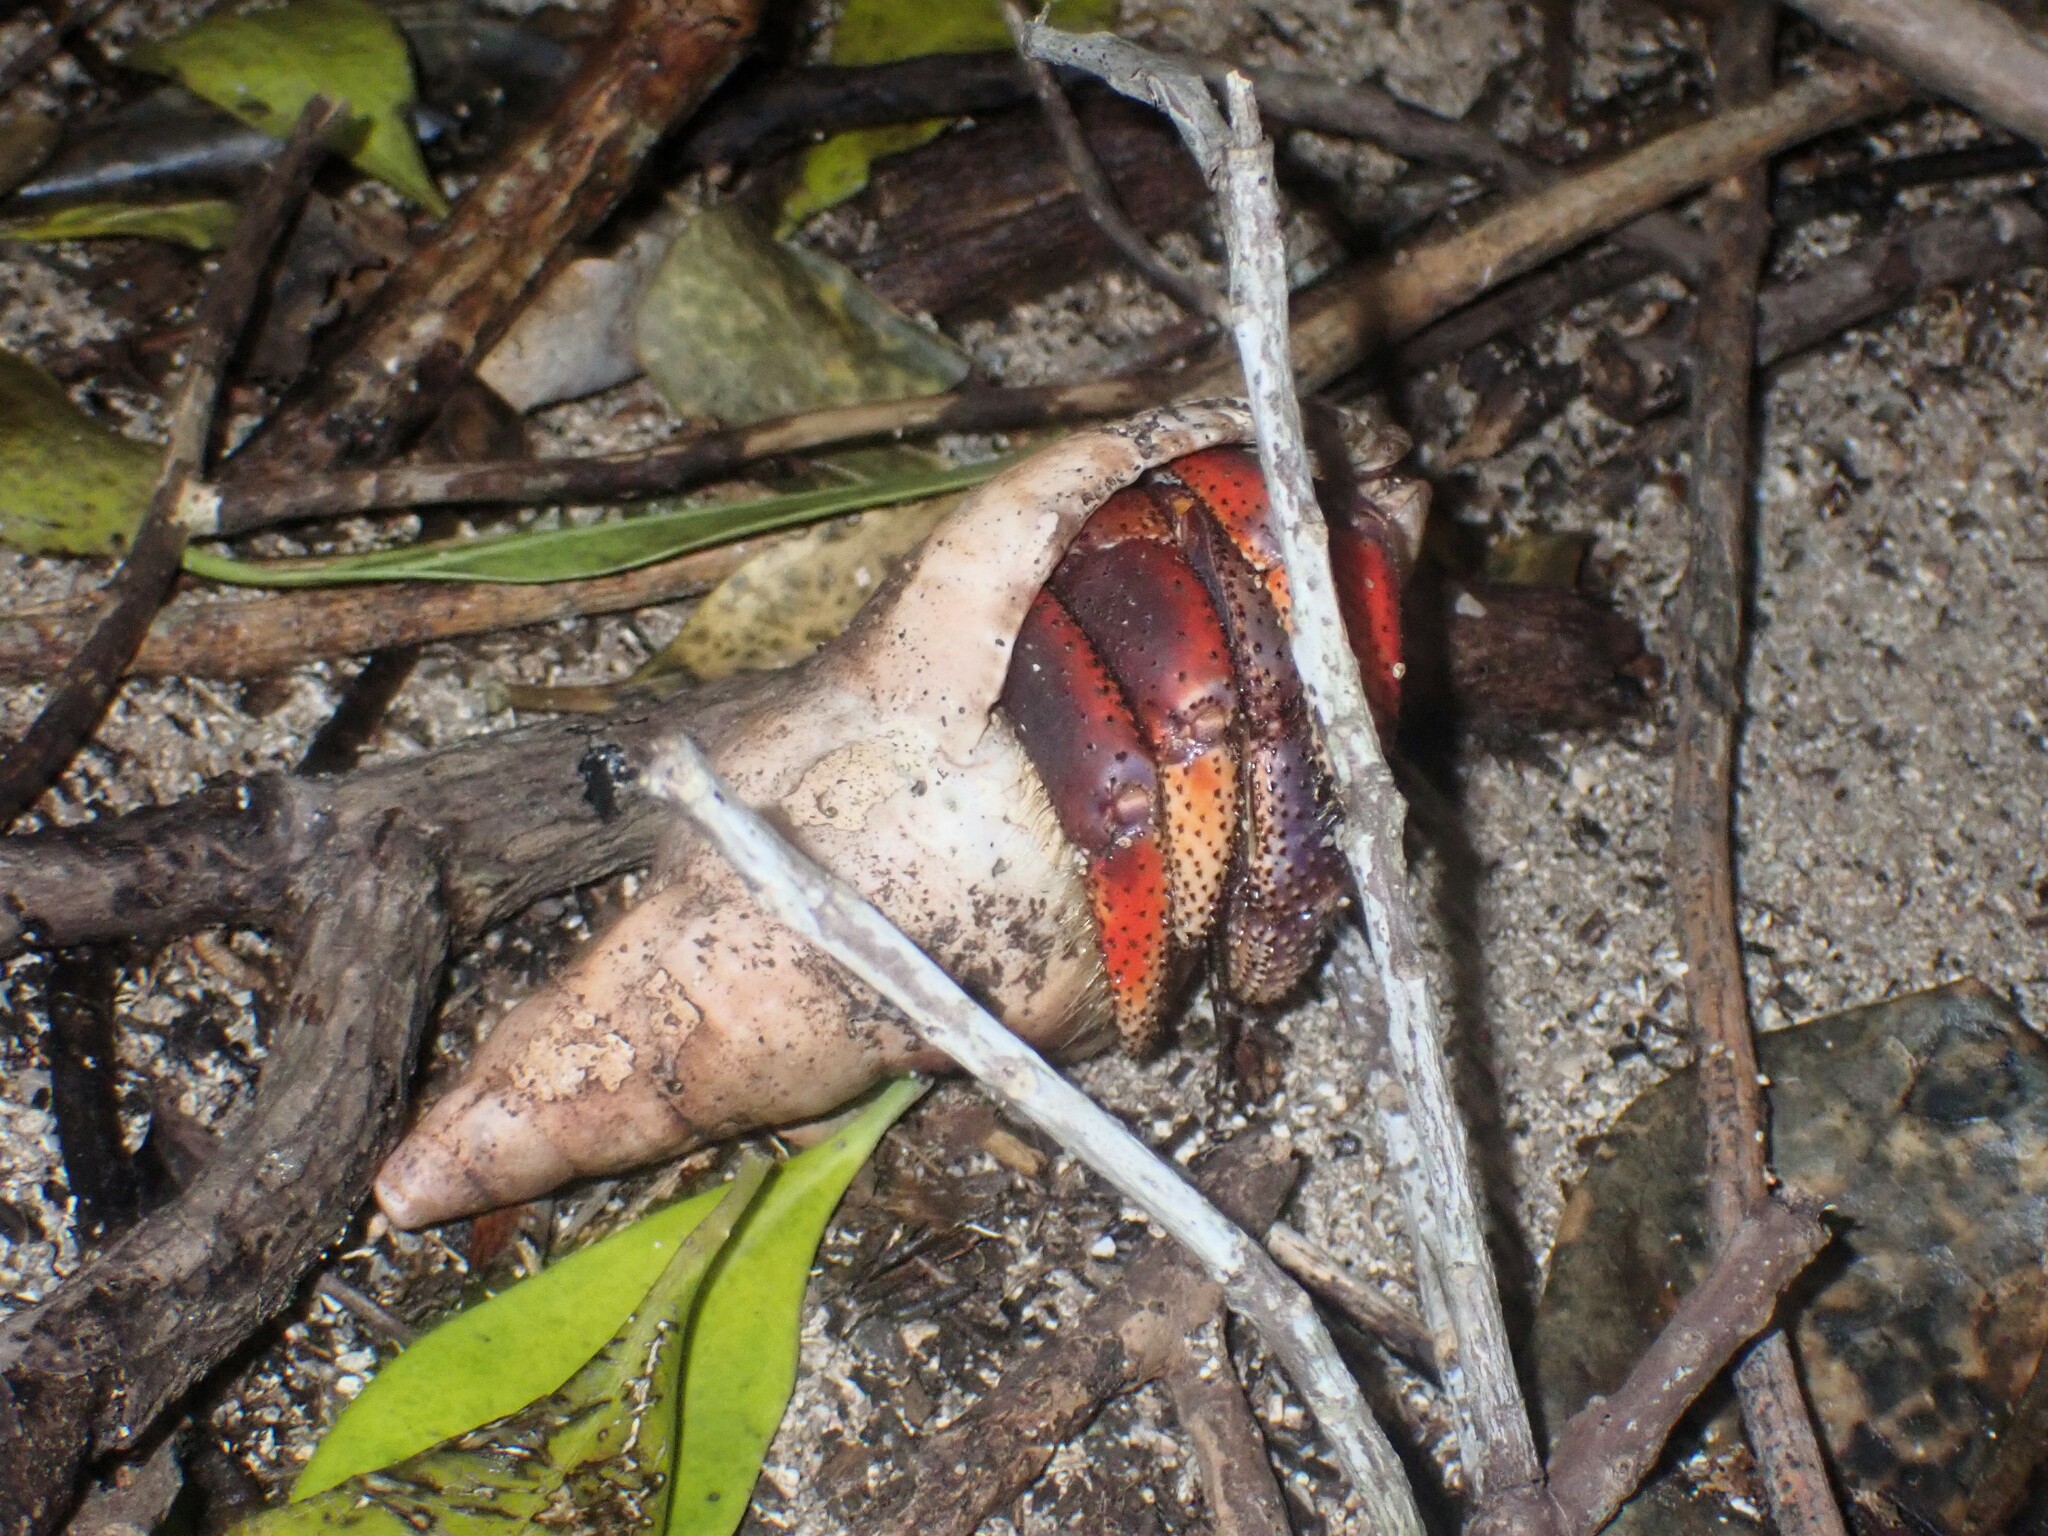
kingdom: Animalia
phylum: Arthropoda
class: Malacostraca
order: Decapoda
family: Coenobitidae
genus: Coenobita
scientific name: Coenobita clypeatus
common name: Caribbean hermit crab
